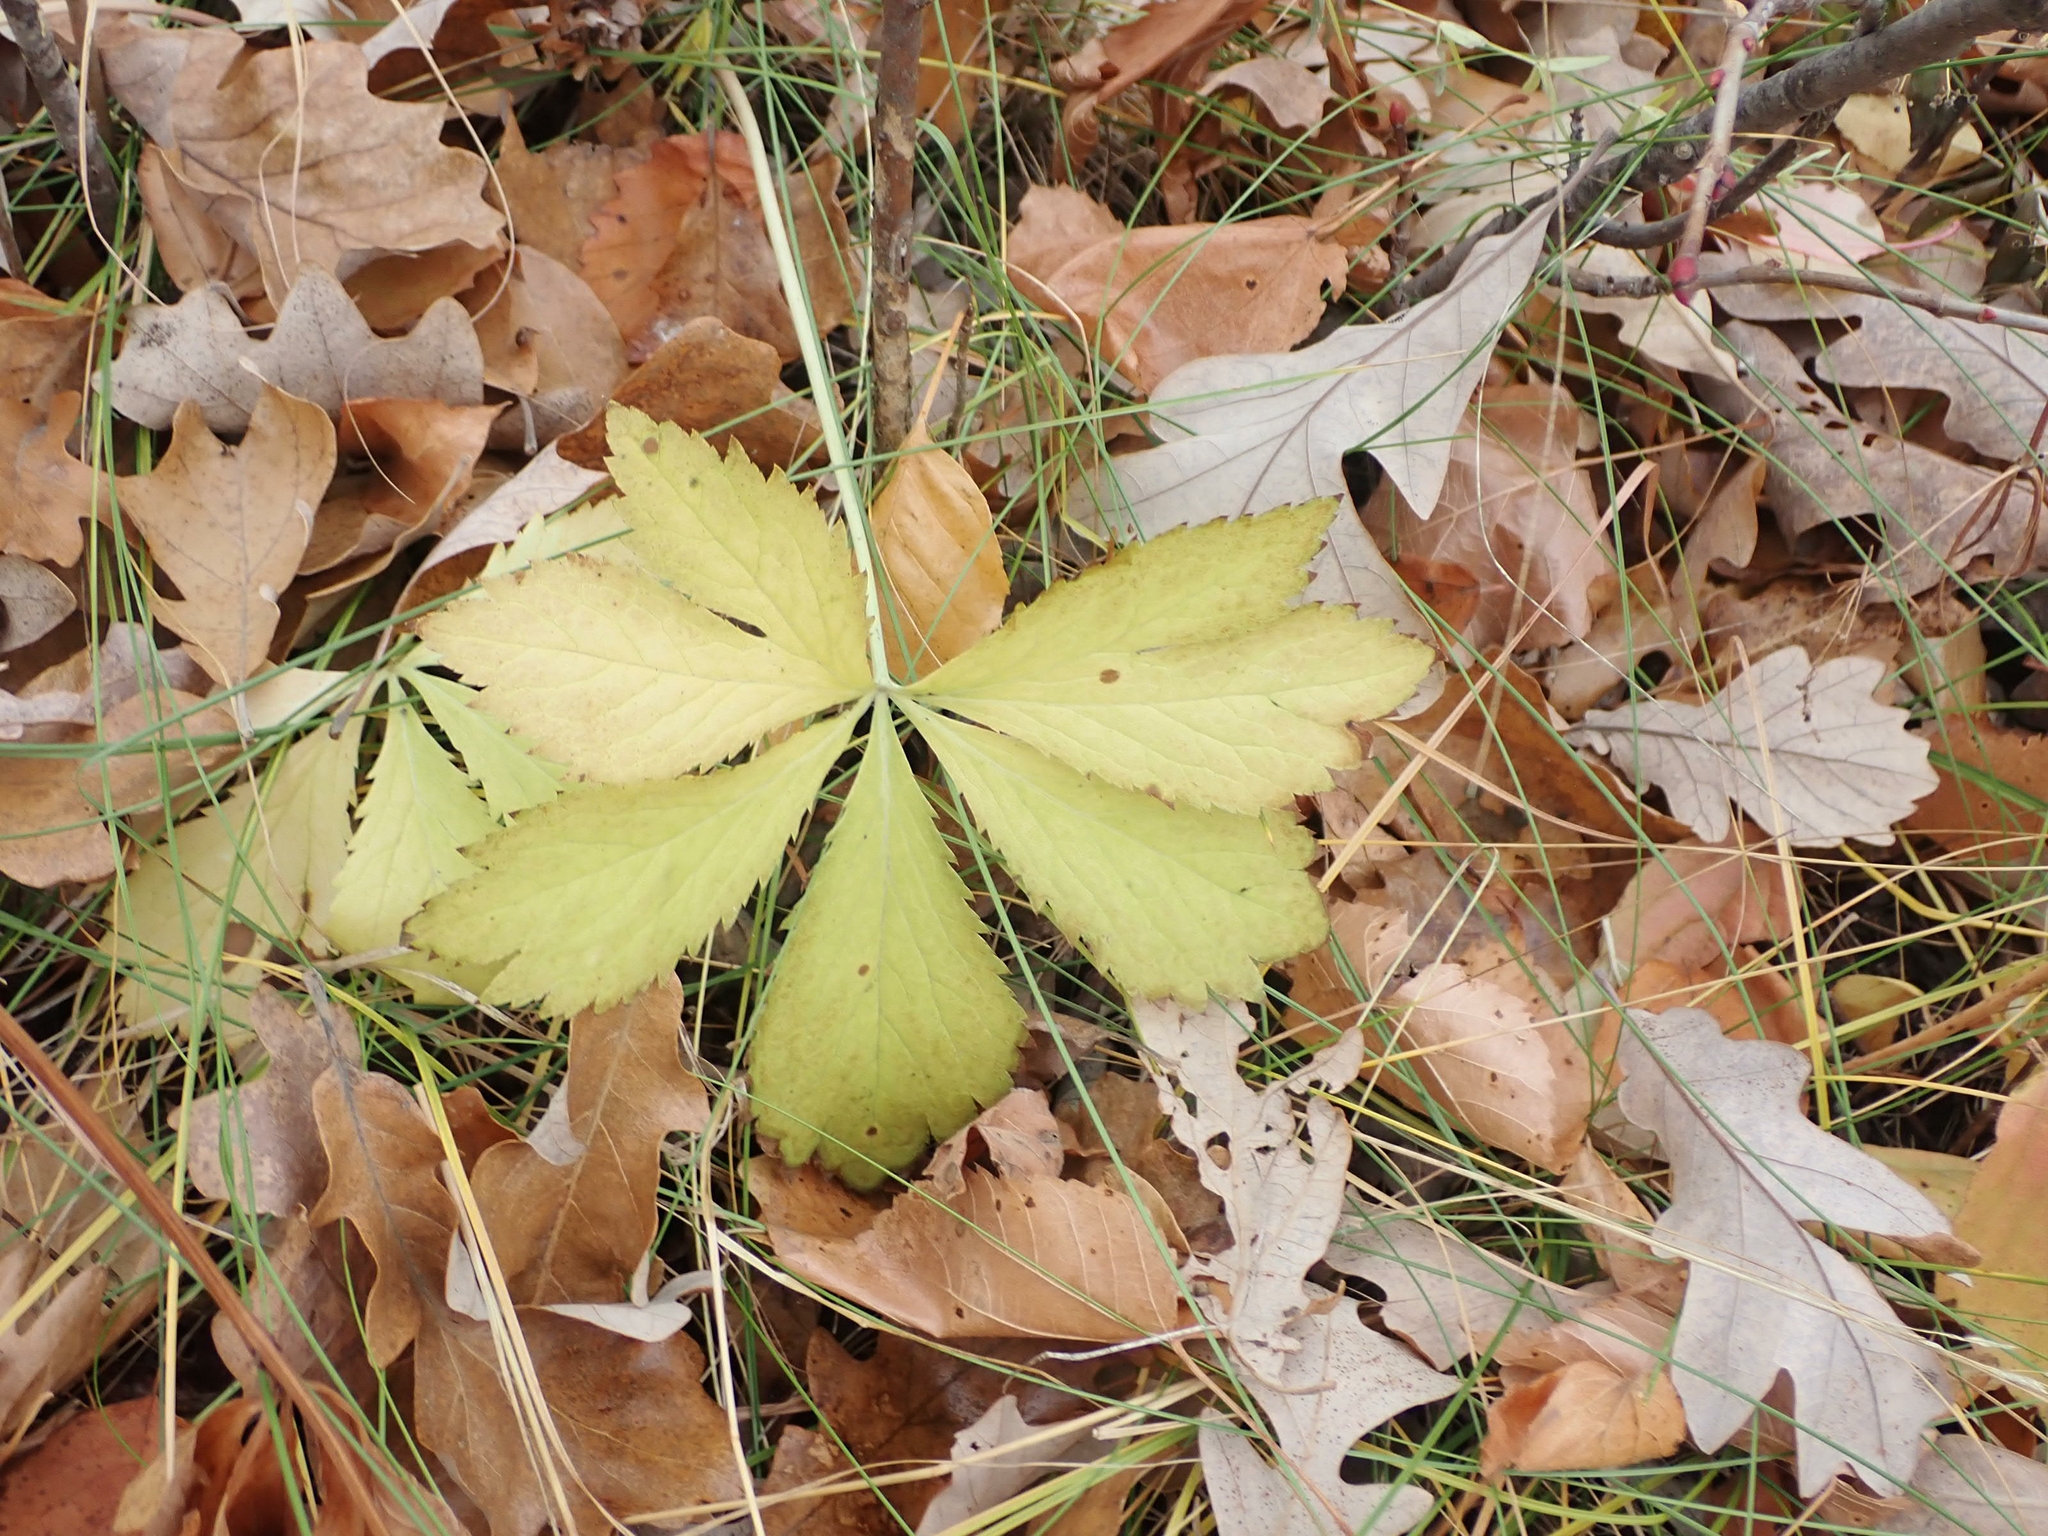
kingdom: Plantae
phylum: Tracheophyta
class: Magnoliopsida
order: Apiales
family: Apiaceae
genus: Sanicula
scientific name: Sanicula marilandica
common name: Black snakeroot
